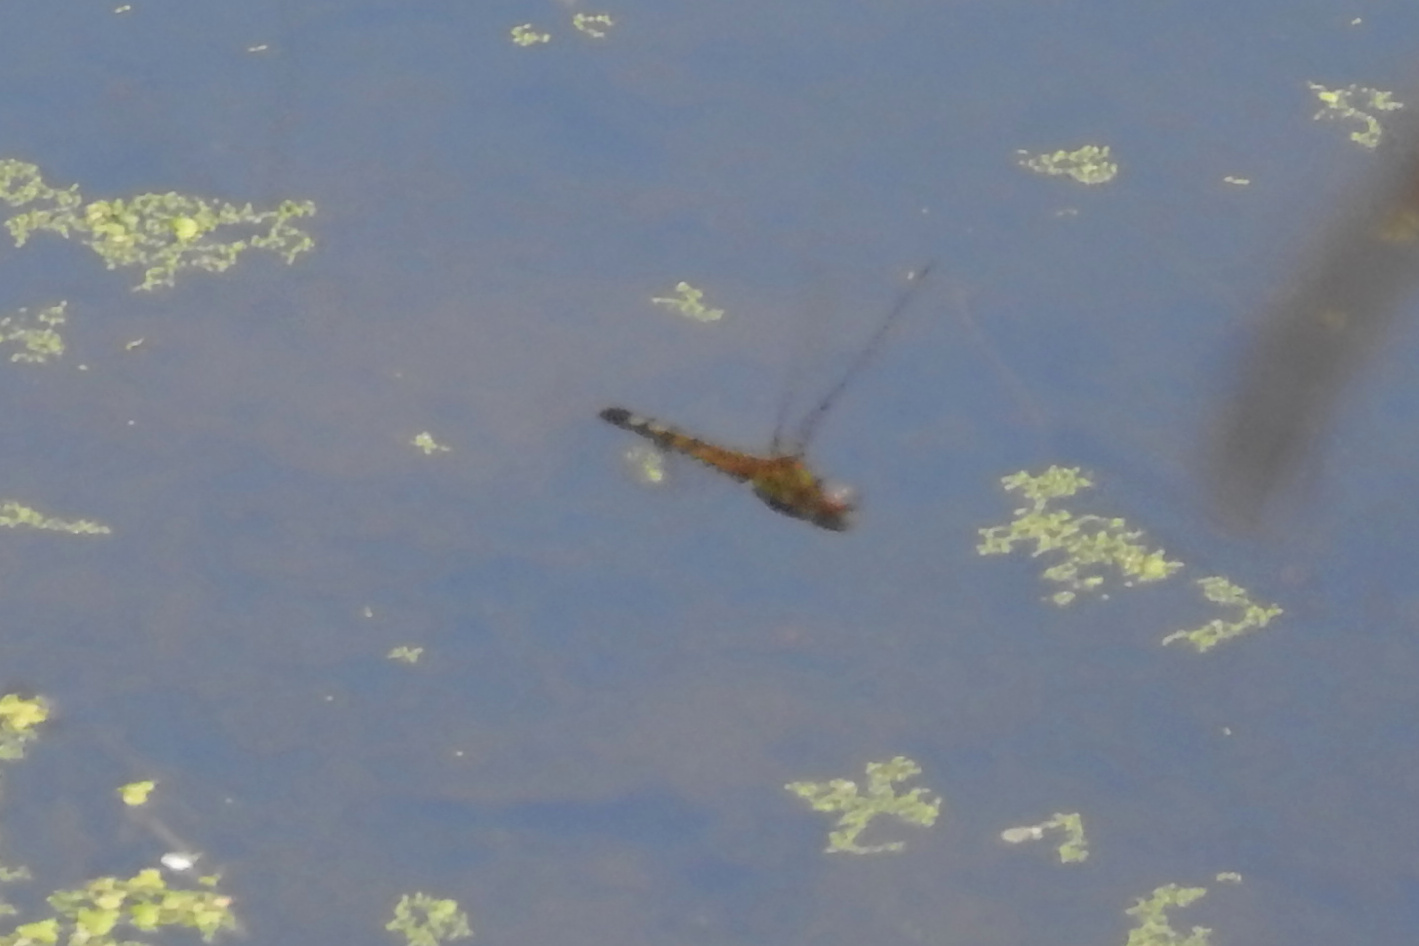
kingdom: Animalia
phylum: Arthropoda
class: Insecta
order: Odonata
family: Libellulidae
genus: Pachydiplax
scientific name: Pachydiplax longipennis
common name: Blue dasher
